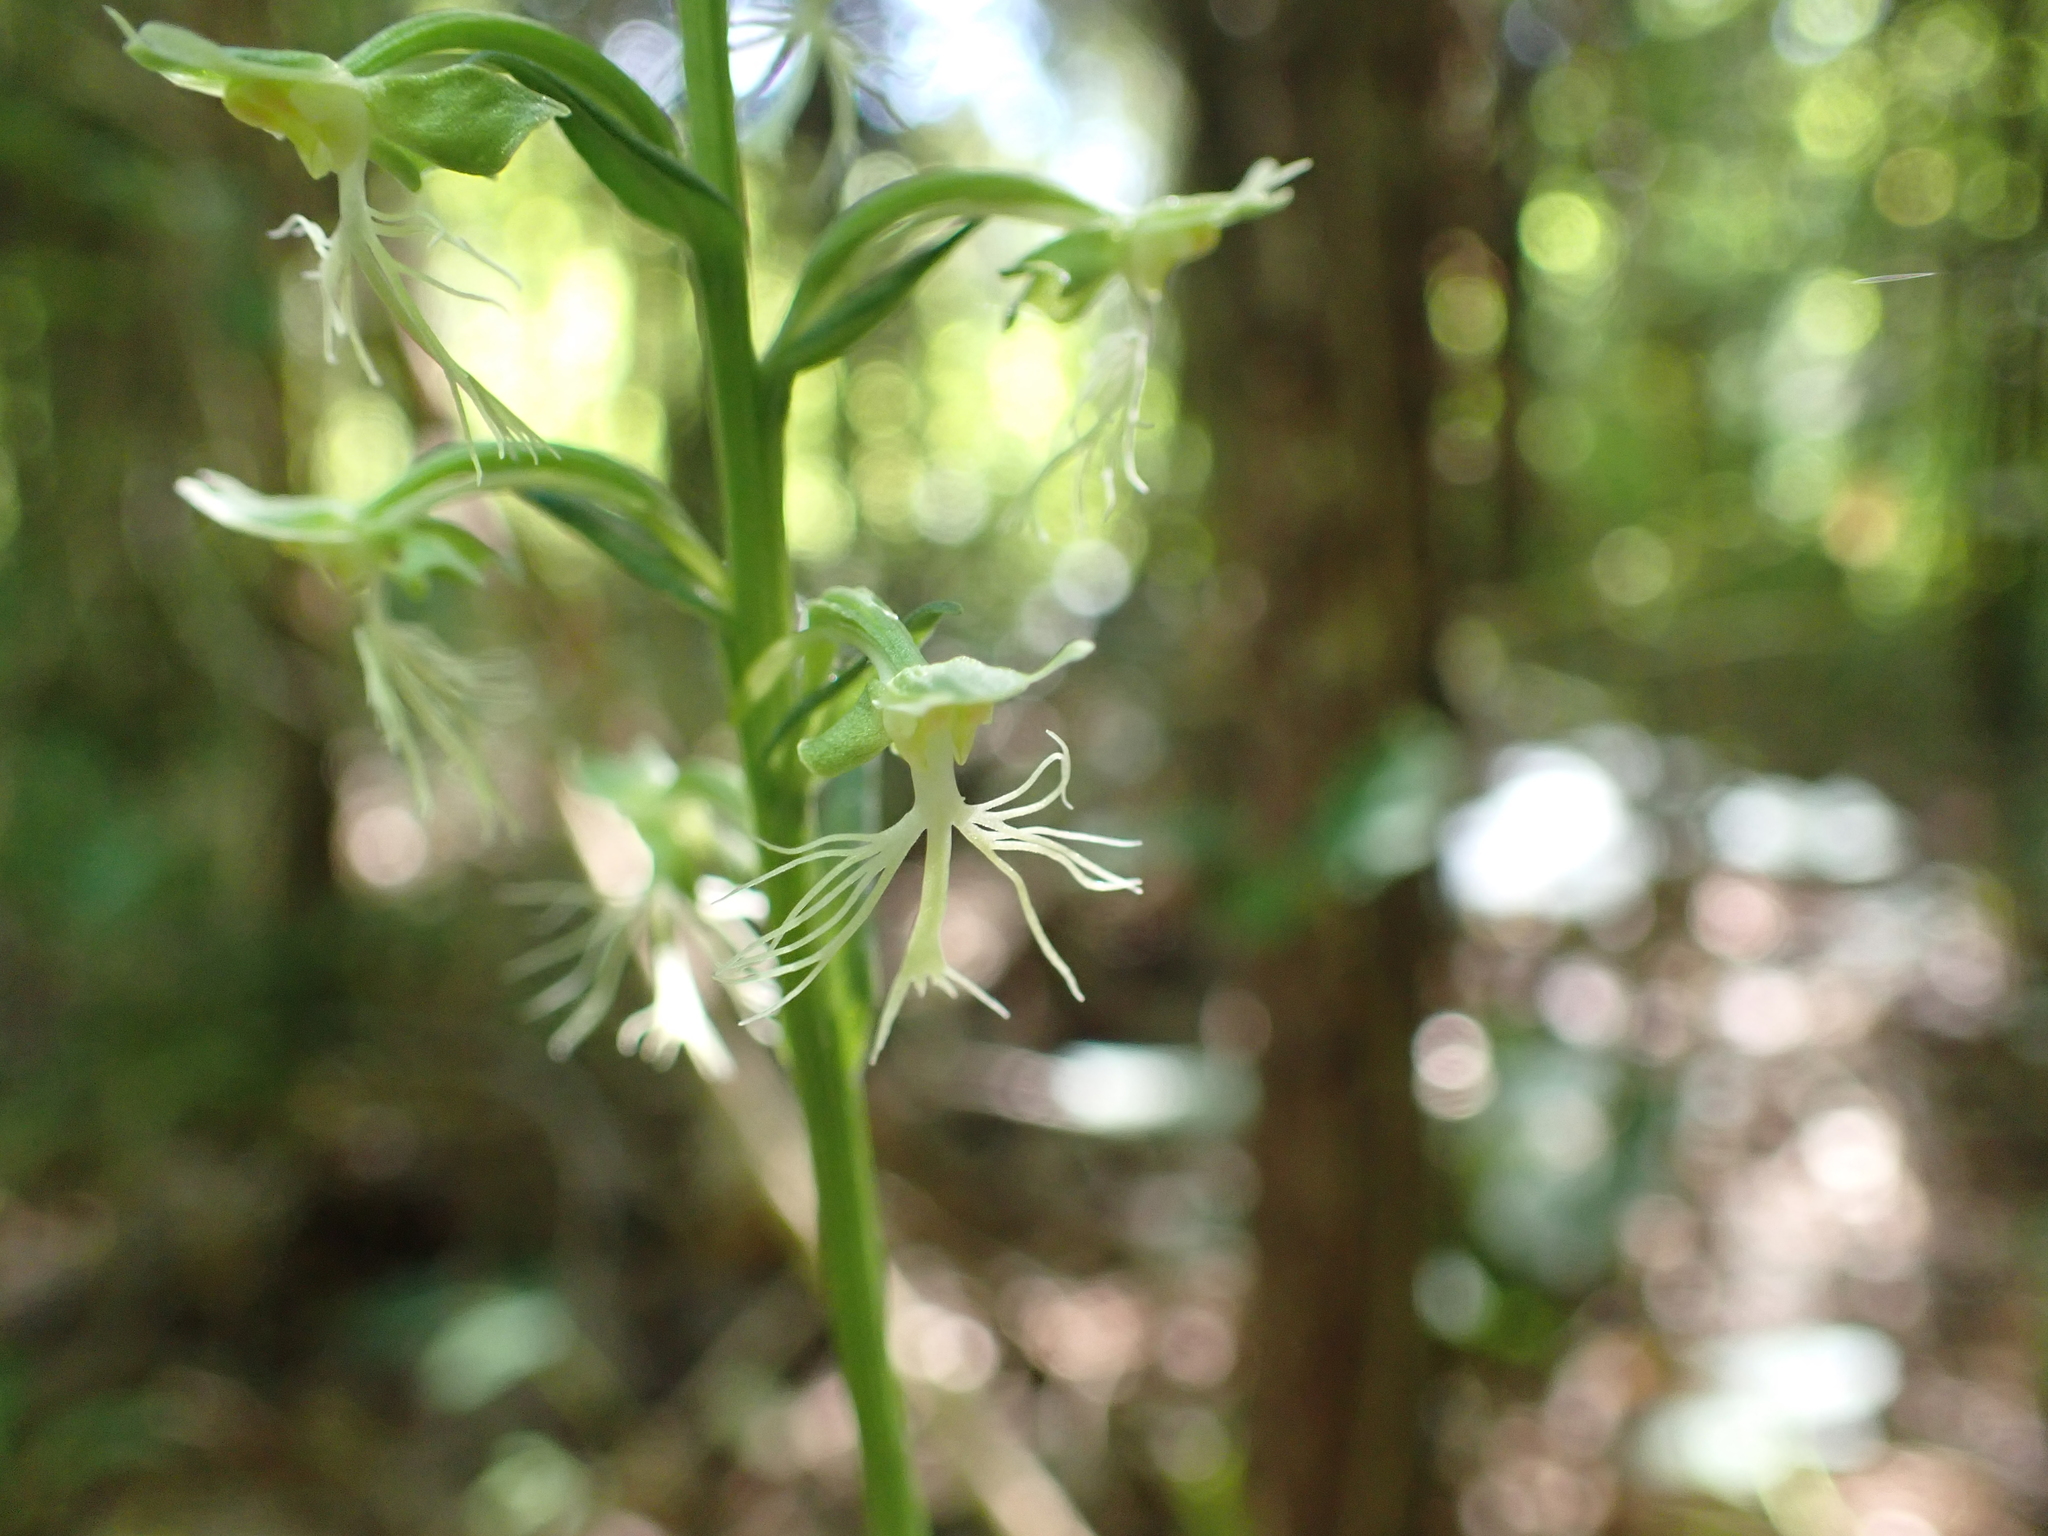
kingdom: Plantae
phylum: Tracheophyta
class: Liliopsida
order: Asparagales
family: Orchidaceae
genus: Platanthera
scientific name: Platanthera lacera
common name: Green fringed orchid
